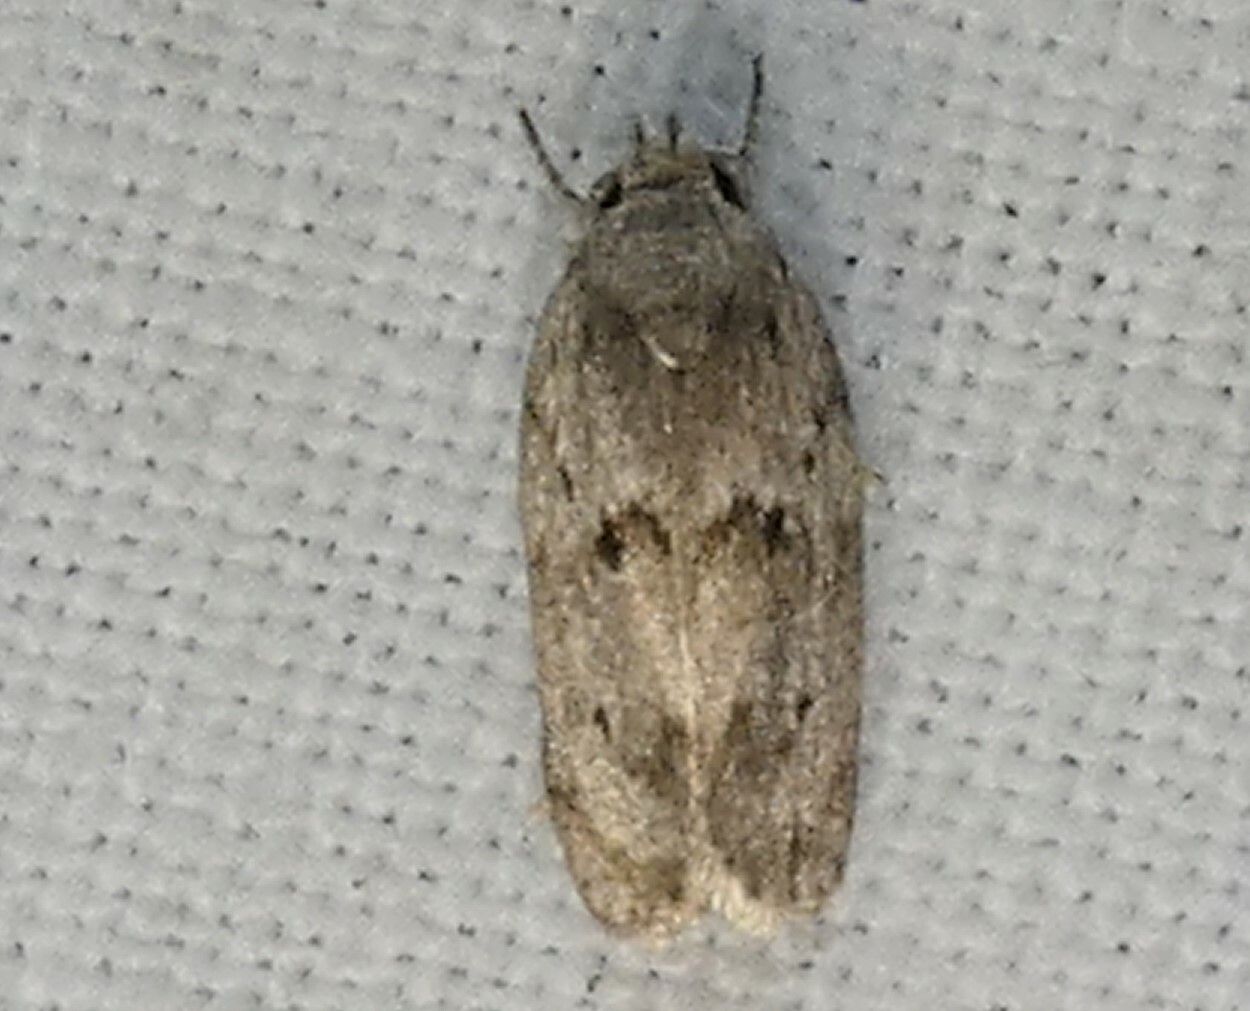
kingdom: Animalia
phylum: Arthropoda
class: Insecta
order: Lepidoptera
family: Depressariidae
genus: Antaeotricha
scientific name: Antaeotricha humilis
